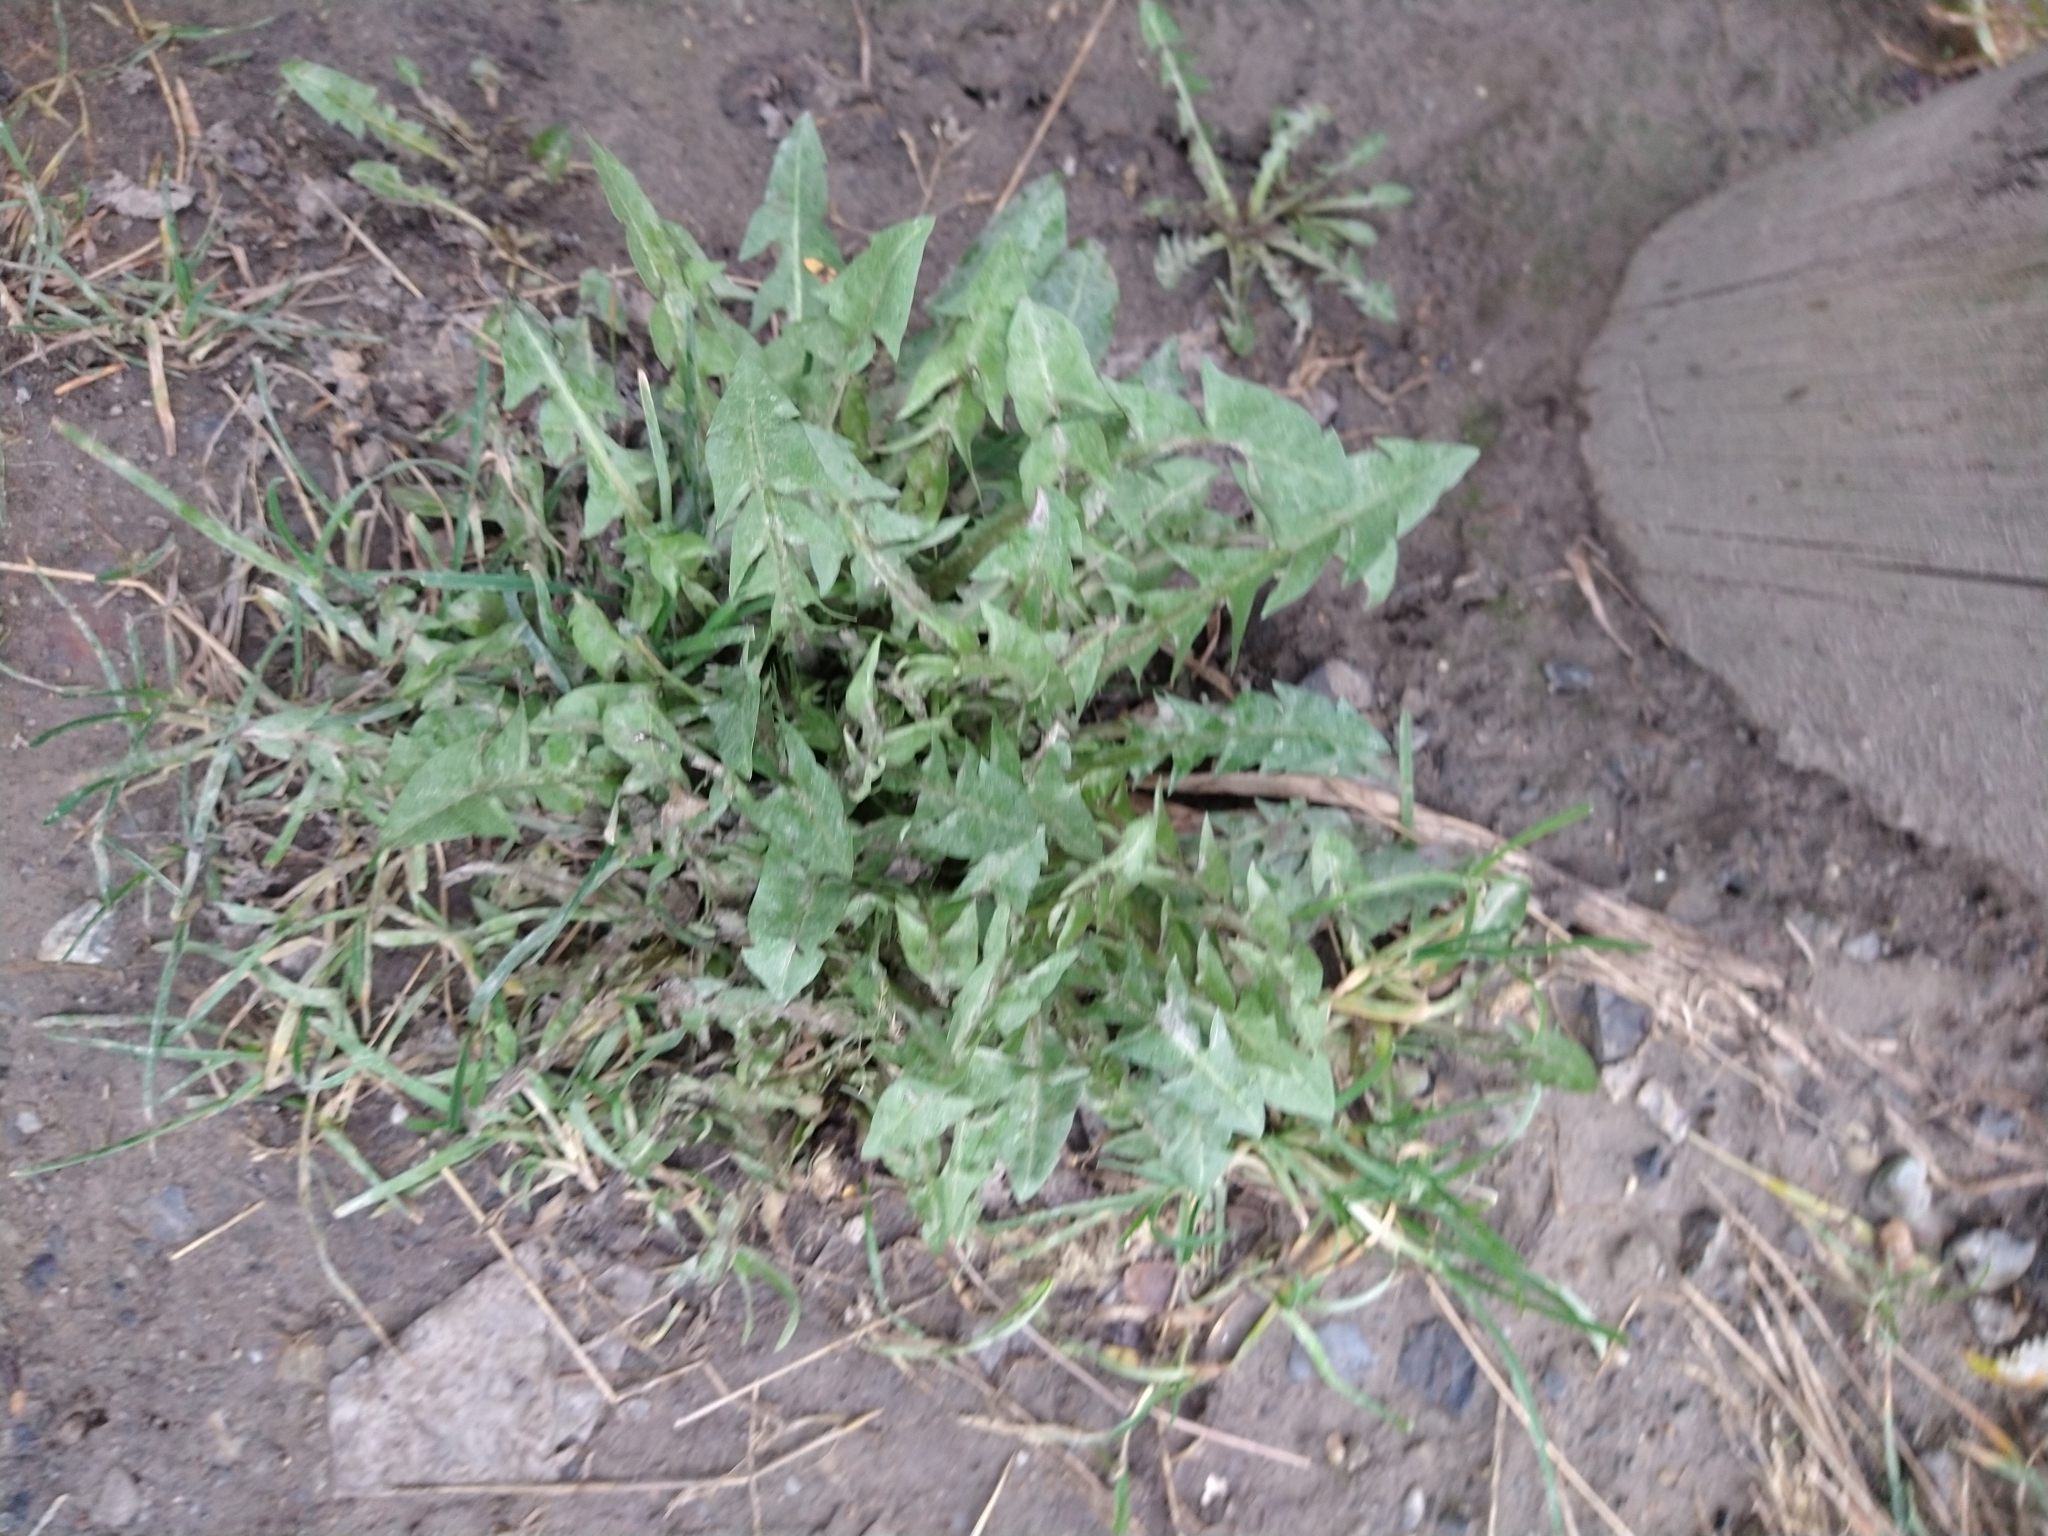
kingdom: Plantae
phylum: Tracheophyta
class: Magnoliopsida
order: Asterales
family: Asteraceae
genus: Taraxacum
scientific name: Taraxacum officinale
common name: Common dandelion
